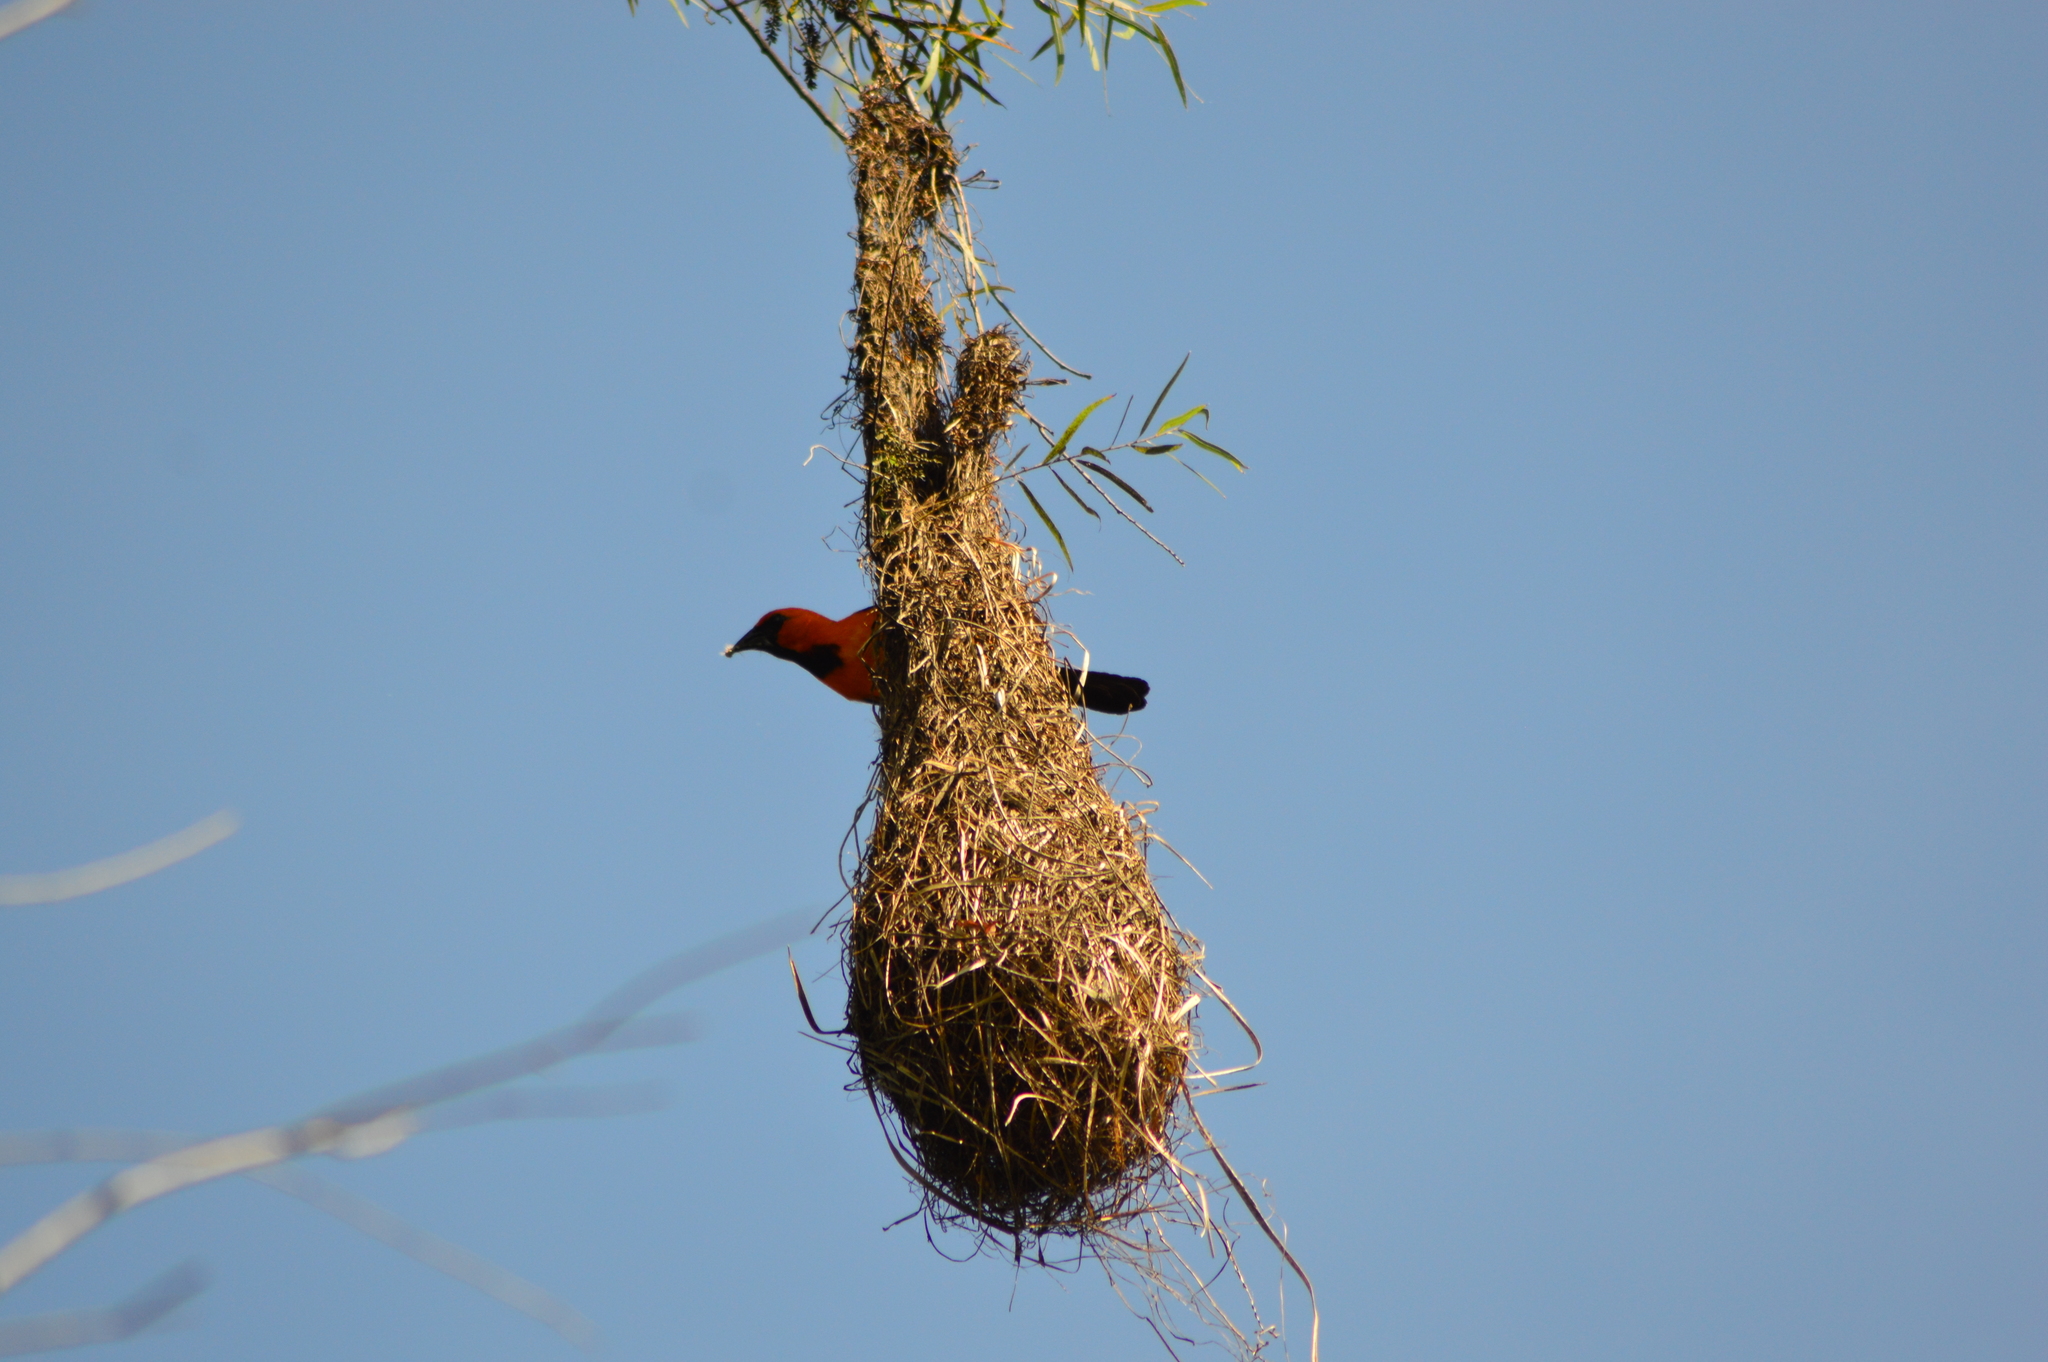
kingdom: Animalia
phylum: Chordata
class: Aves
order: Passeriformes
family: Icteridae
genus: Icterus
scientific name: Icterus gularis
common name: Altamira oriole
